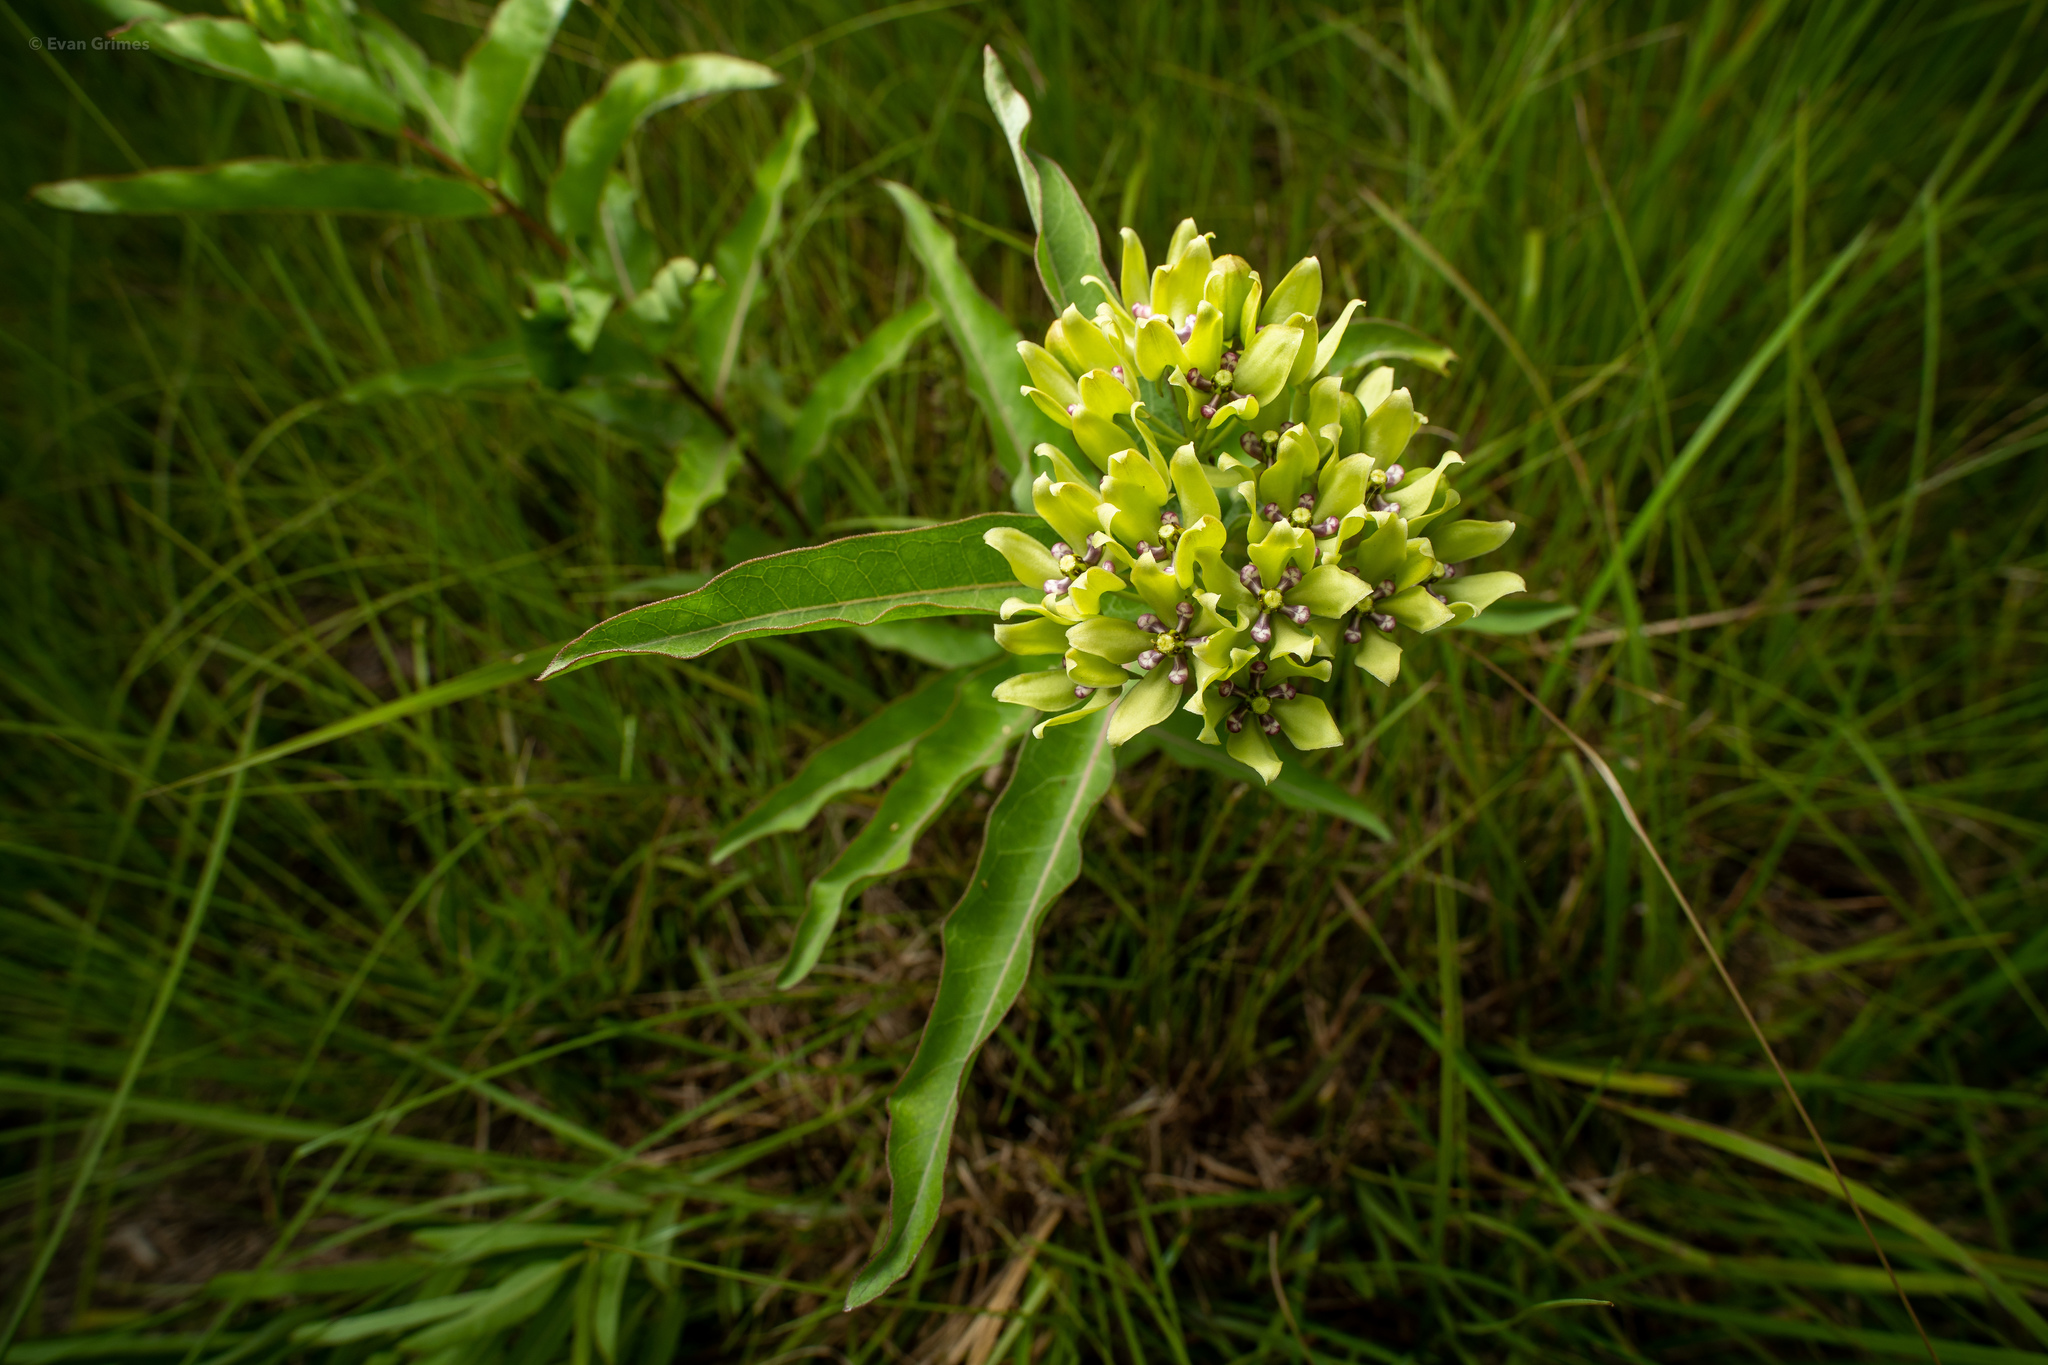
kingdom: Plantae
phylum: Tracheophyta
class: Magnoliopsida
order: Gentianales
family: Apocynaceae
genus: Asclepias
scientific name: Asclepias viridis
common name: Antelope-horns
